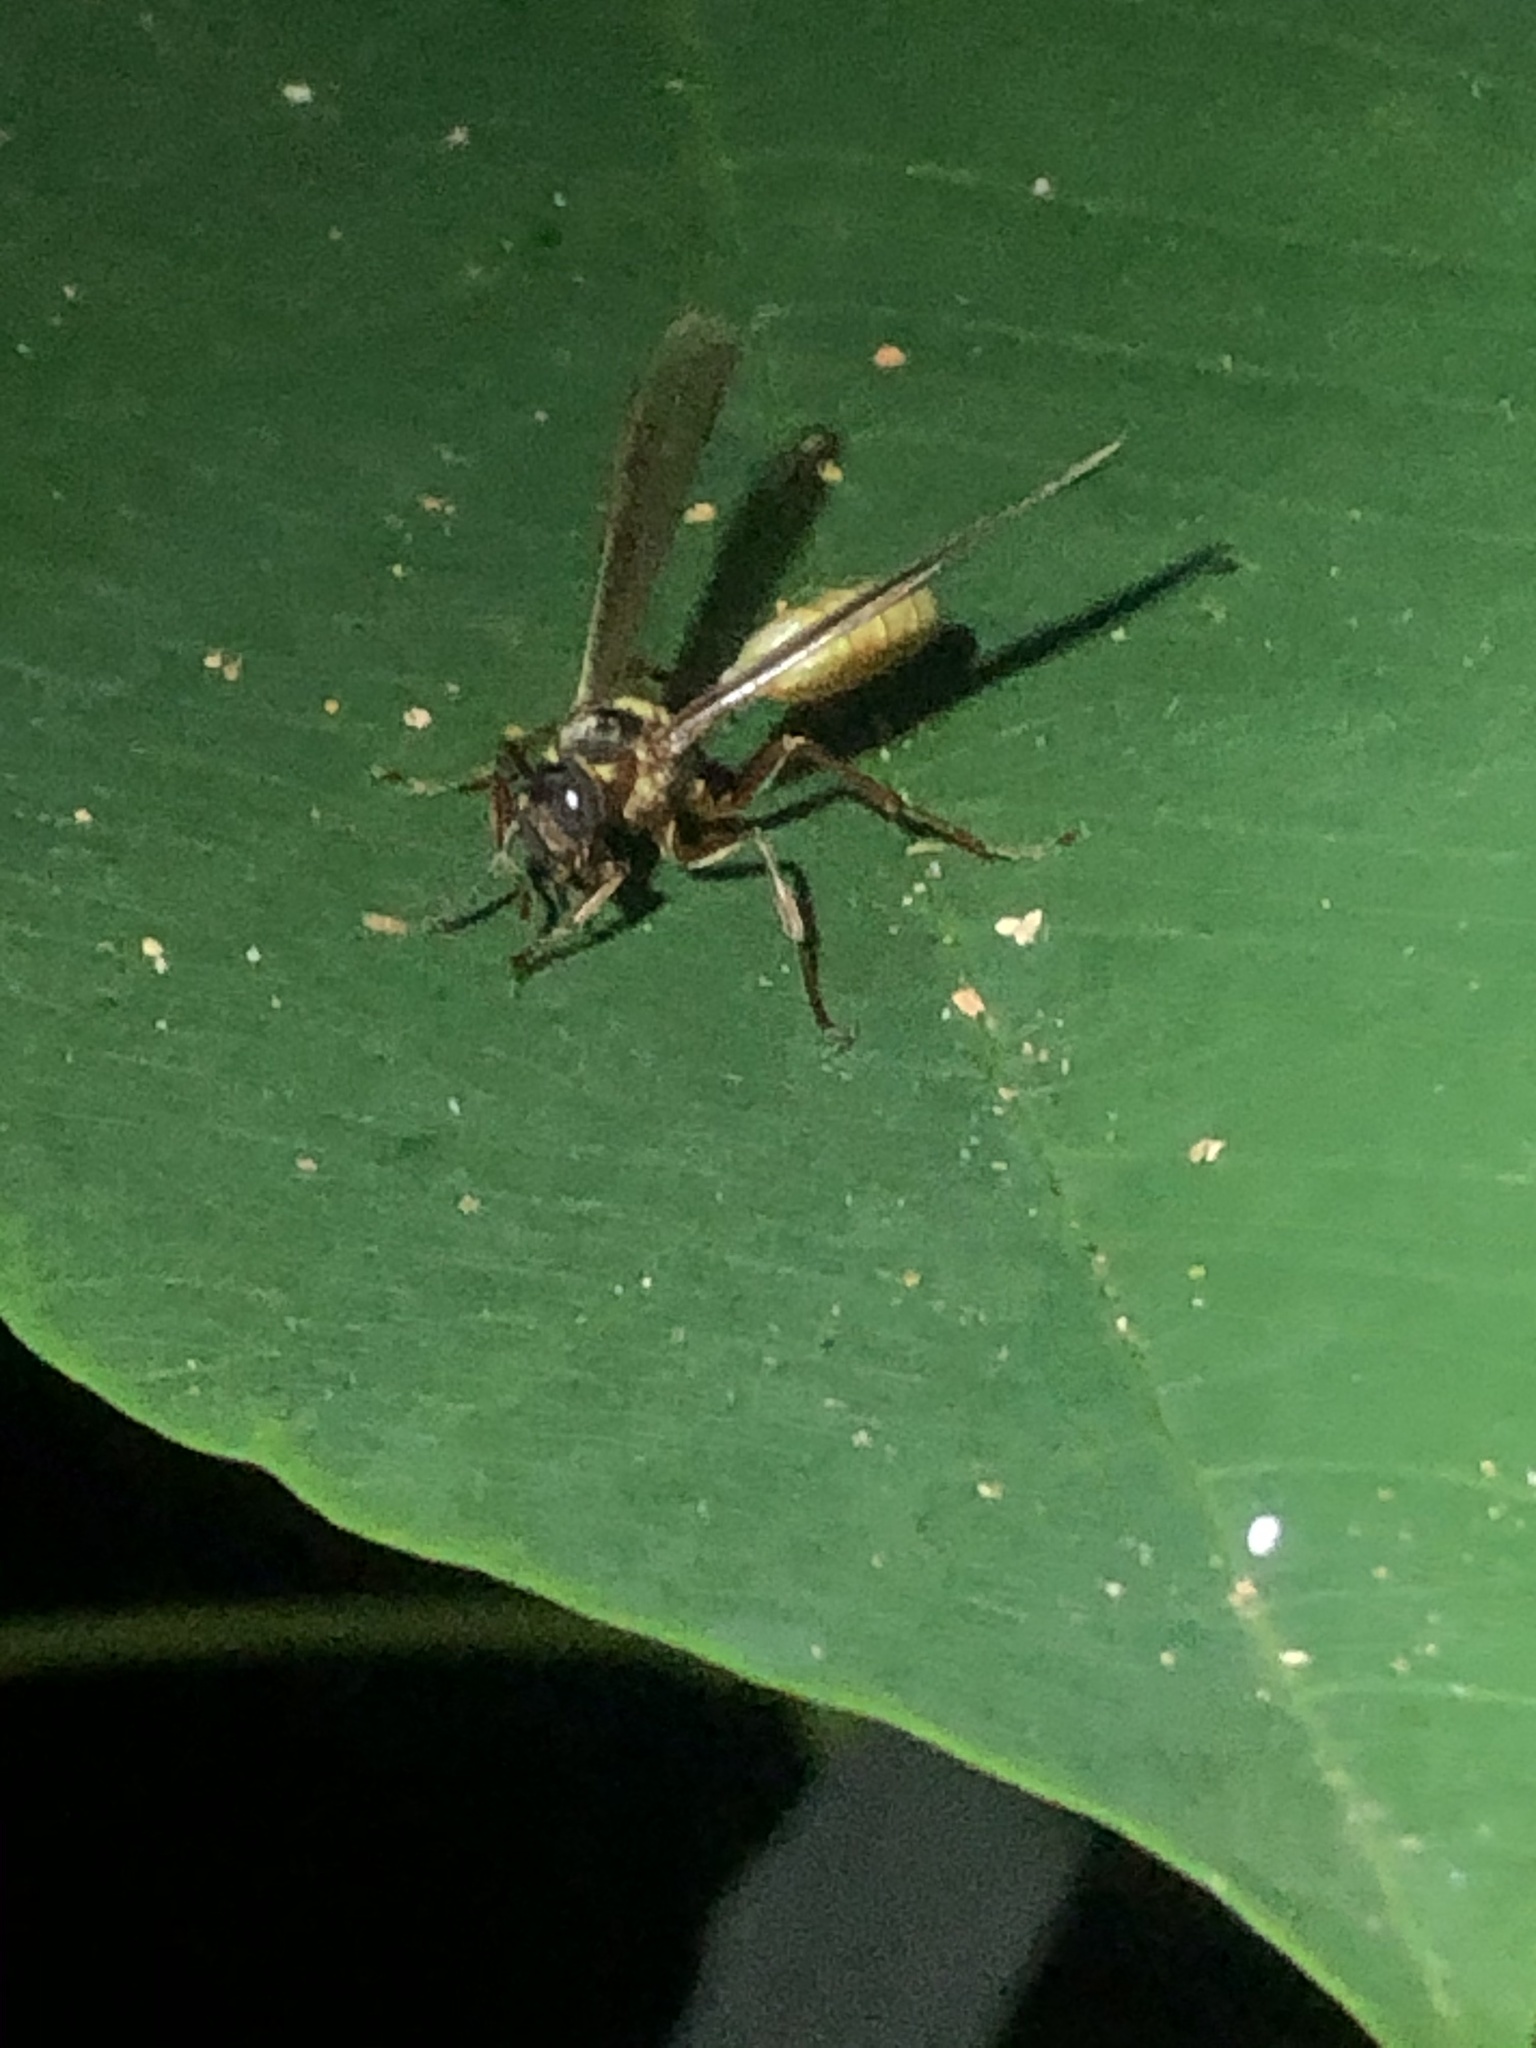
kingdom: Animalia
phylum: Arthropoda
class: Insecta
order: Hymenoptera
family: Vespidae
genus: Apoica
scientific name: Apoica pallens
